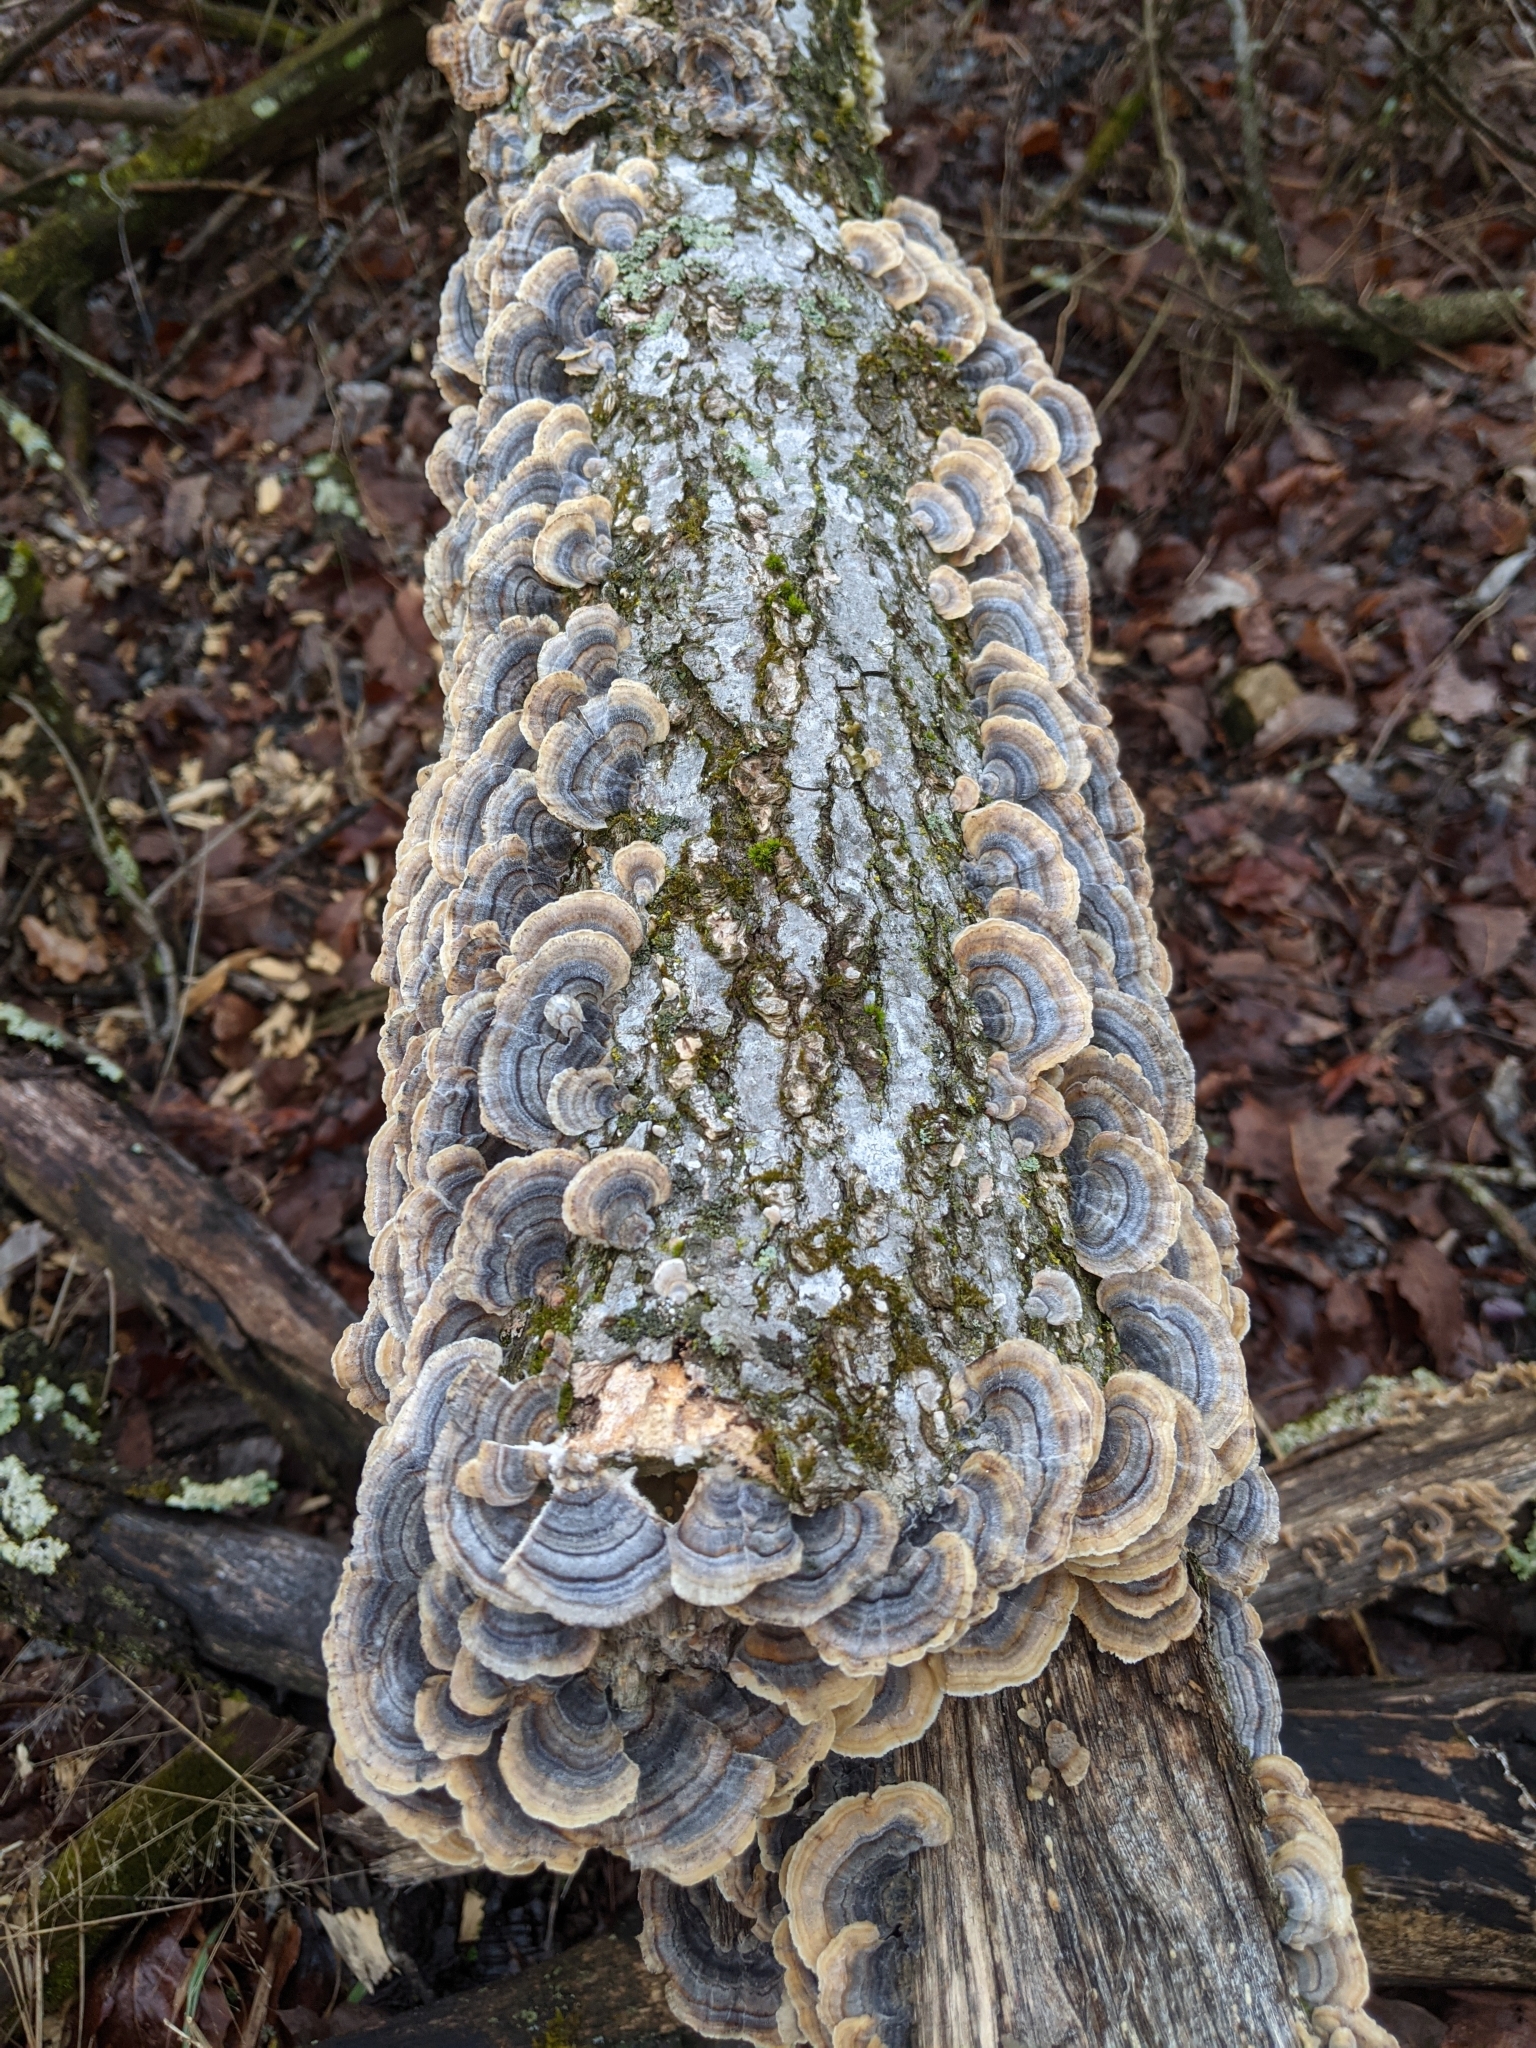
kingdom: Fungi
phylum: Basidiomycota
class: Agaricomycetes
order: Polyporales
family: Polyporaceae
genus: Trametes
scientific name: Trametes versicolor
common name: Turkeytail
